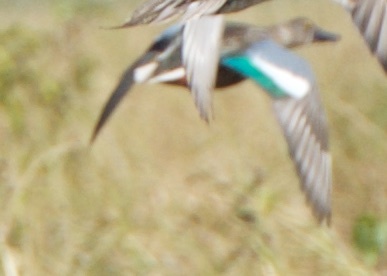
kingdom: Animalia
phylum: Chordata
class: Aves
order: Anseriformes
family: Anatidae
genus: Spatula
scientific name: Spatula clypeata
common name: Northern shoveler
